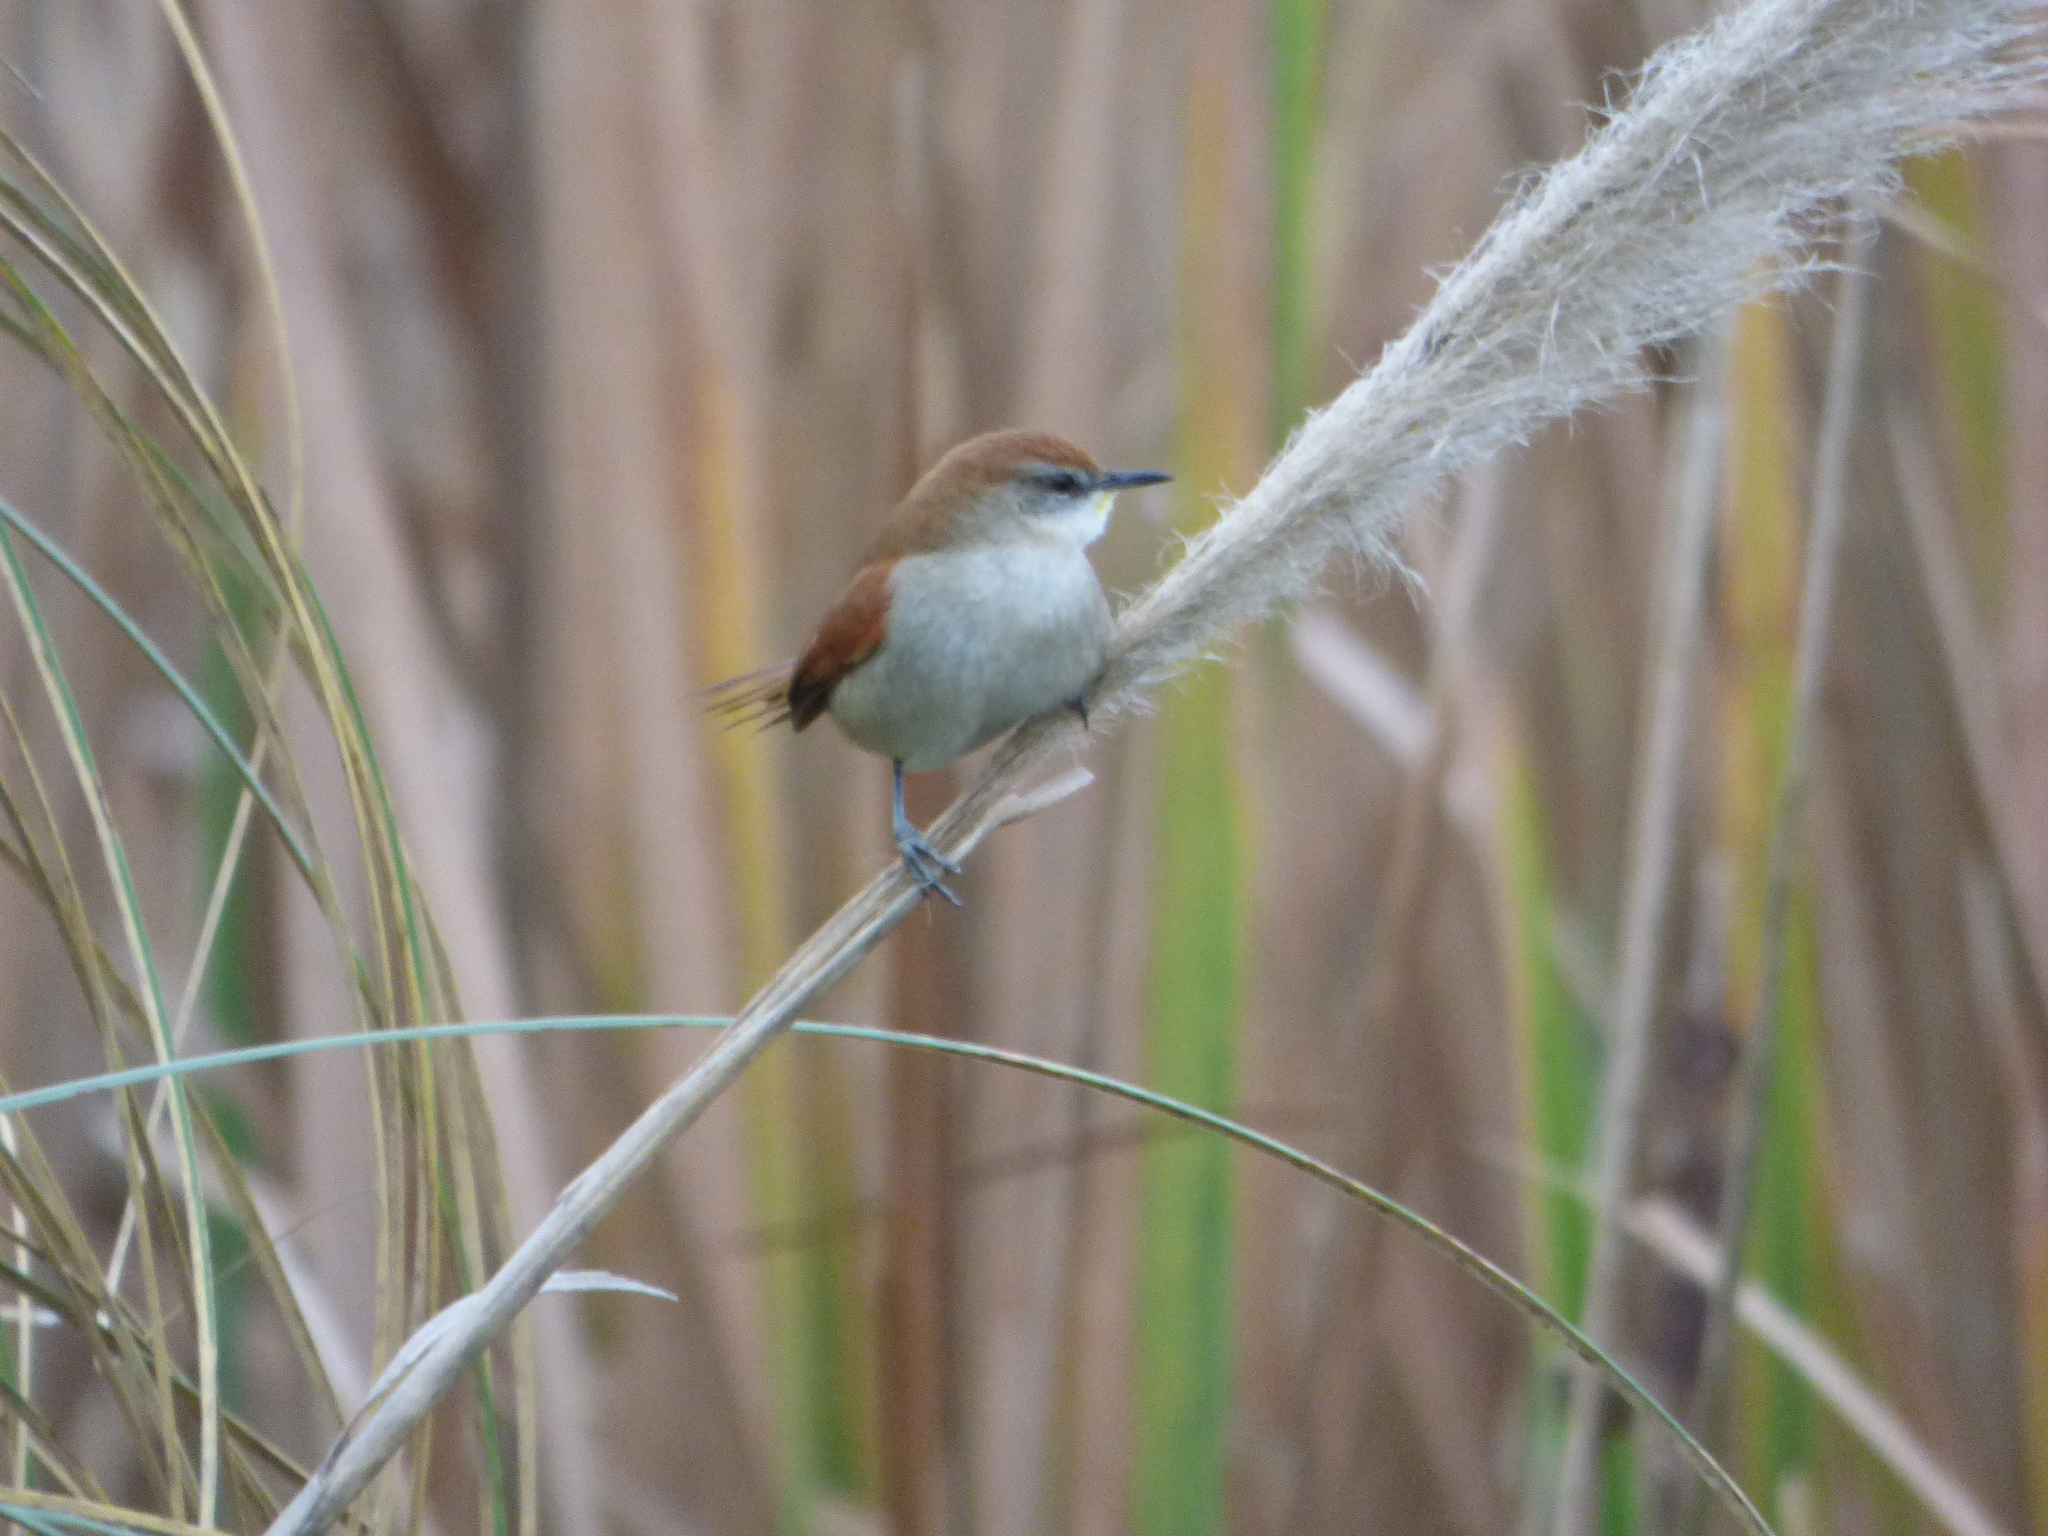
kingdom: Animalia
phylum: Chordata
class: Aves
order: Passeriformes
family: Furnariidae
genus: Certhiaxis
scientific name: Certhiaxis cinnamomeus
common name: Yellow-chinned spinetail
